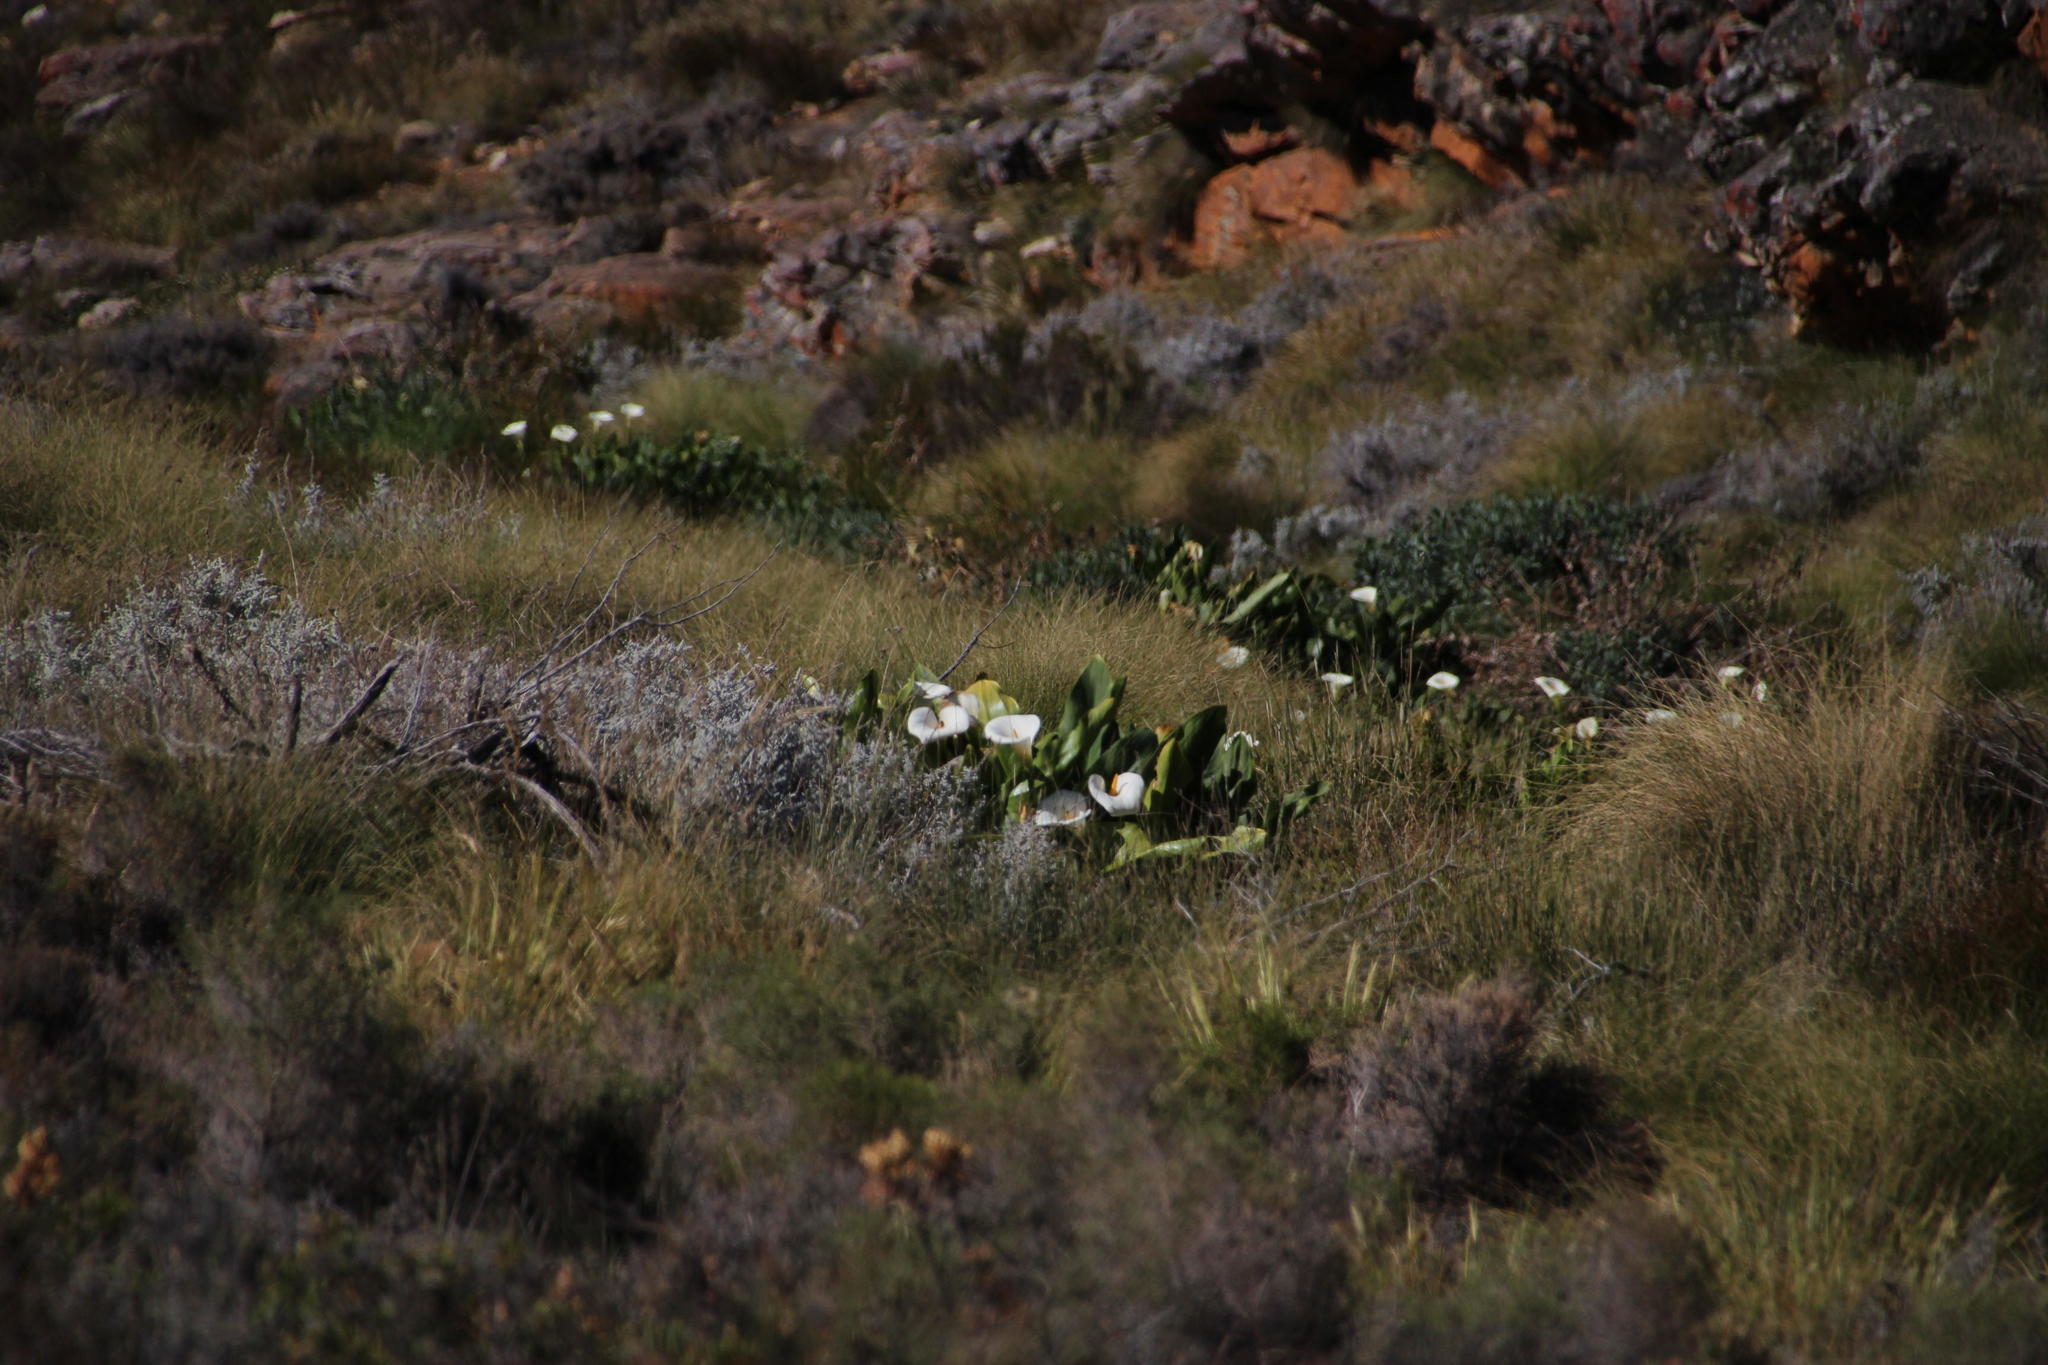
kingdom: Plantae
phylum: Tracheophyta
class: Liliopsida
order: Alismatales
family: Araceae
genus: Zantedeschia
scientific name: Zantedeschia aethiopica
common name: Altar-lily
